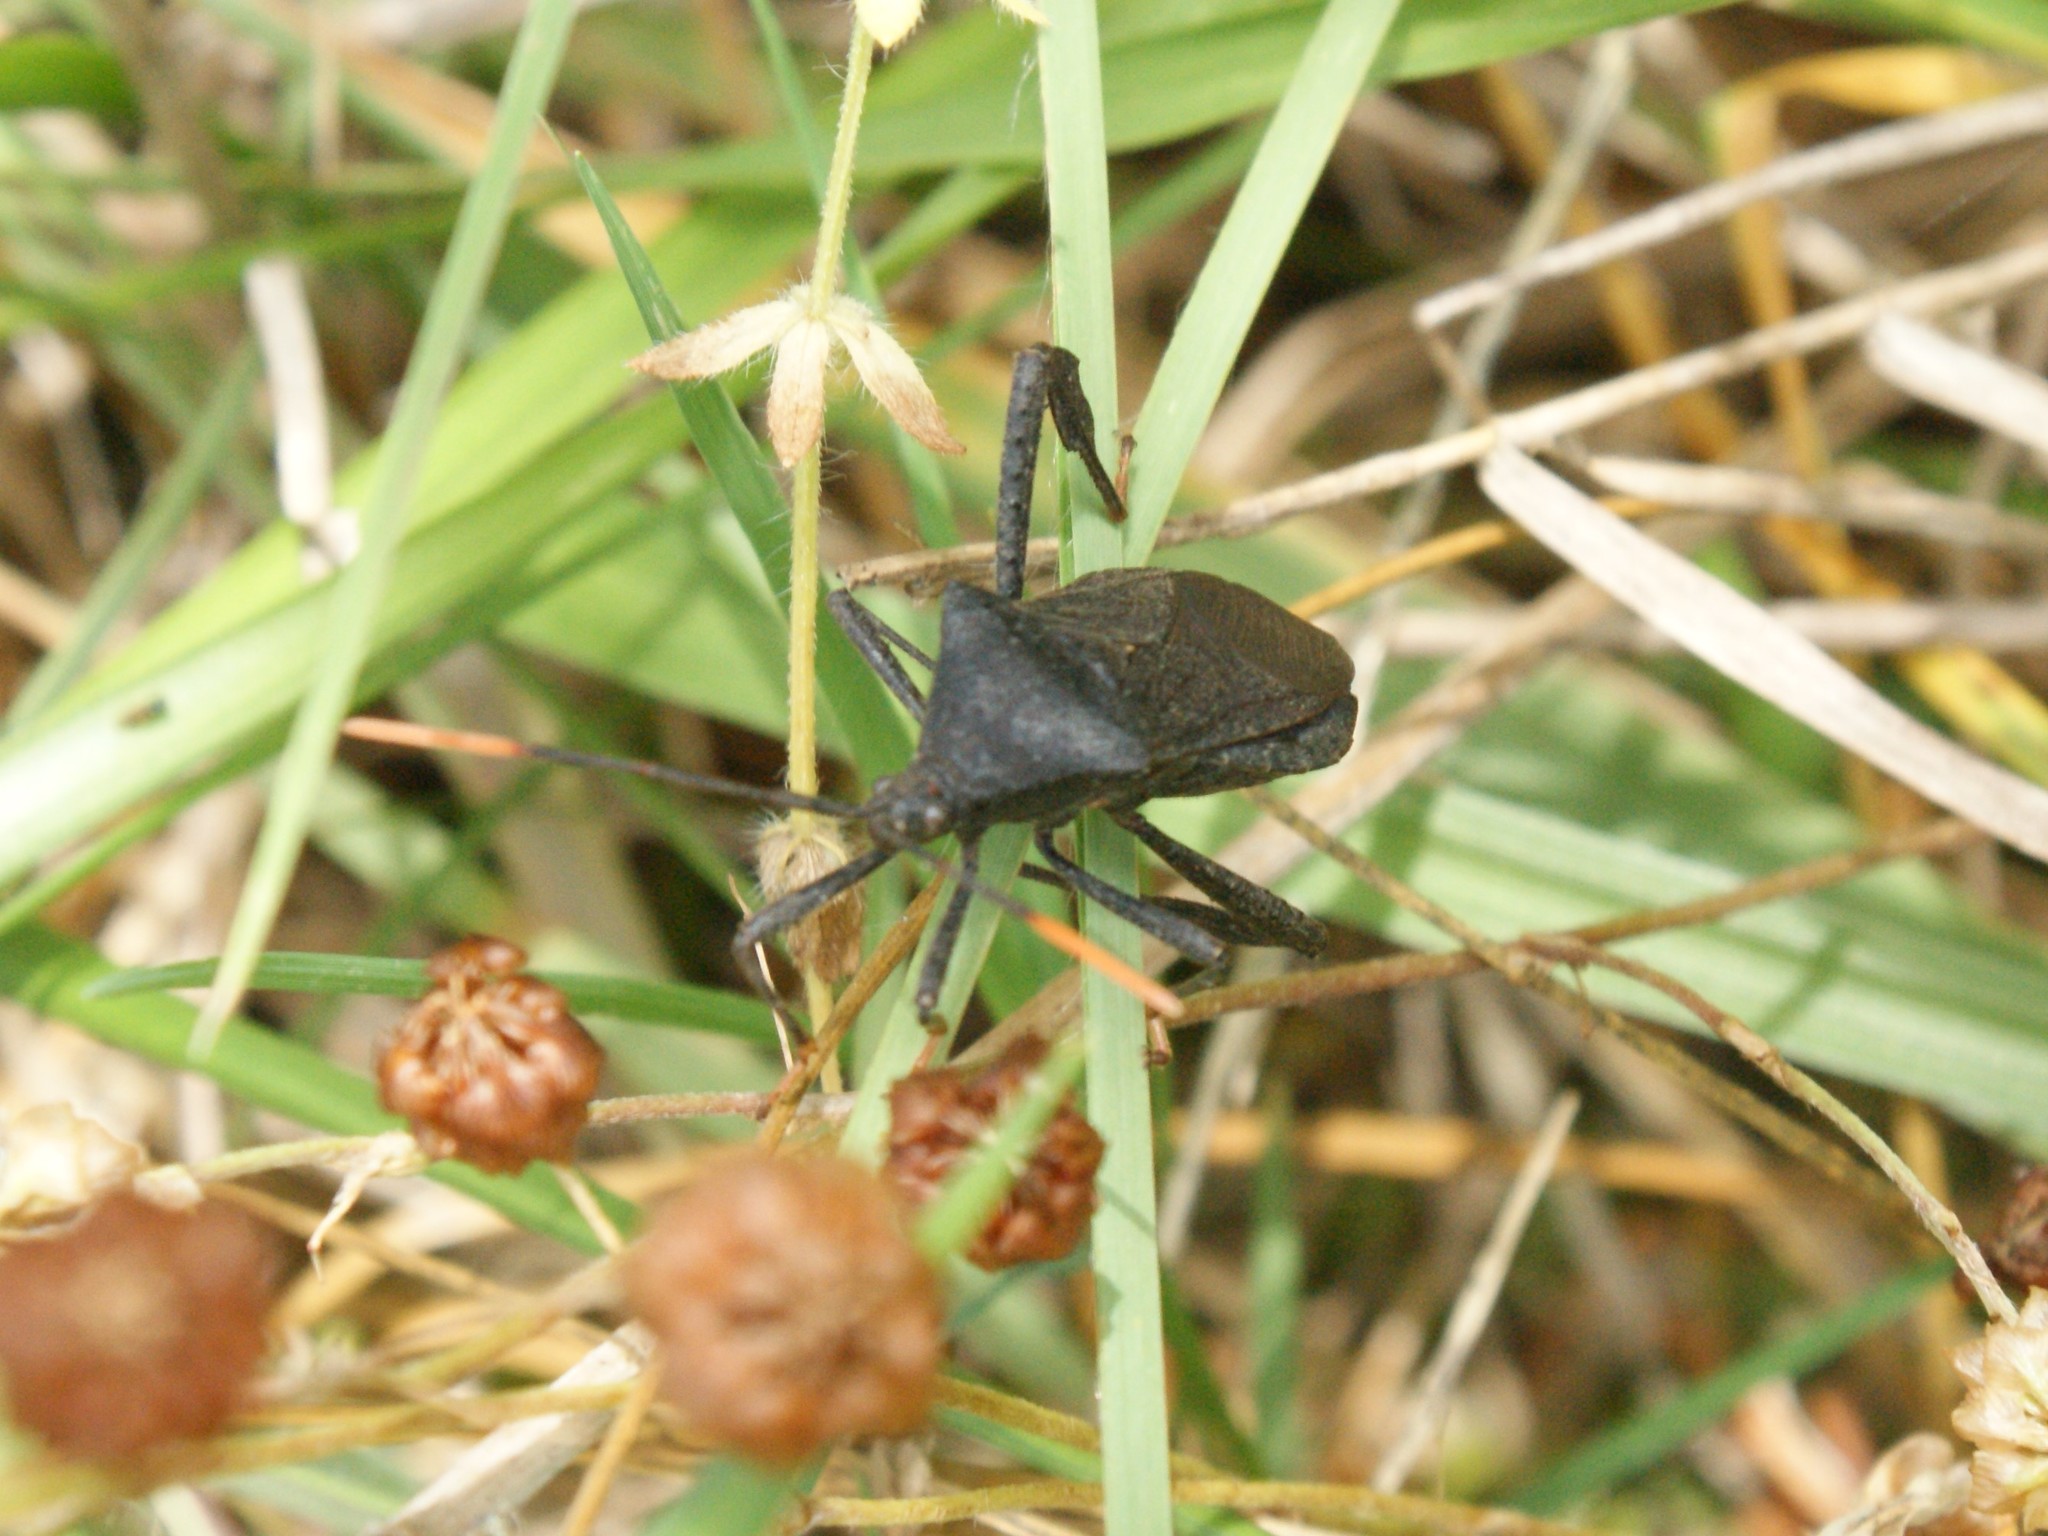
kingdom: Animalia
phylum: Arthropoda
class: Insecta
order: Hemiptera
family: Coreidae
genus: Acanthocephala
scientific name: Acanthocephala terminalis
